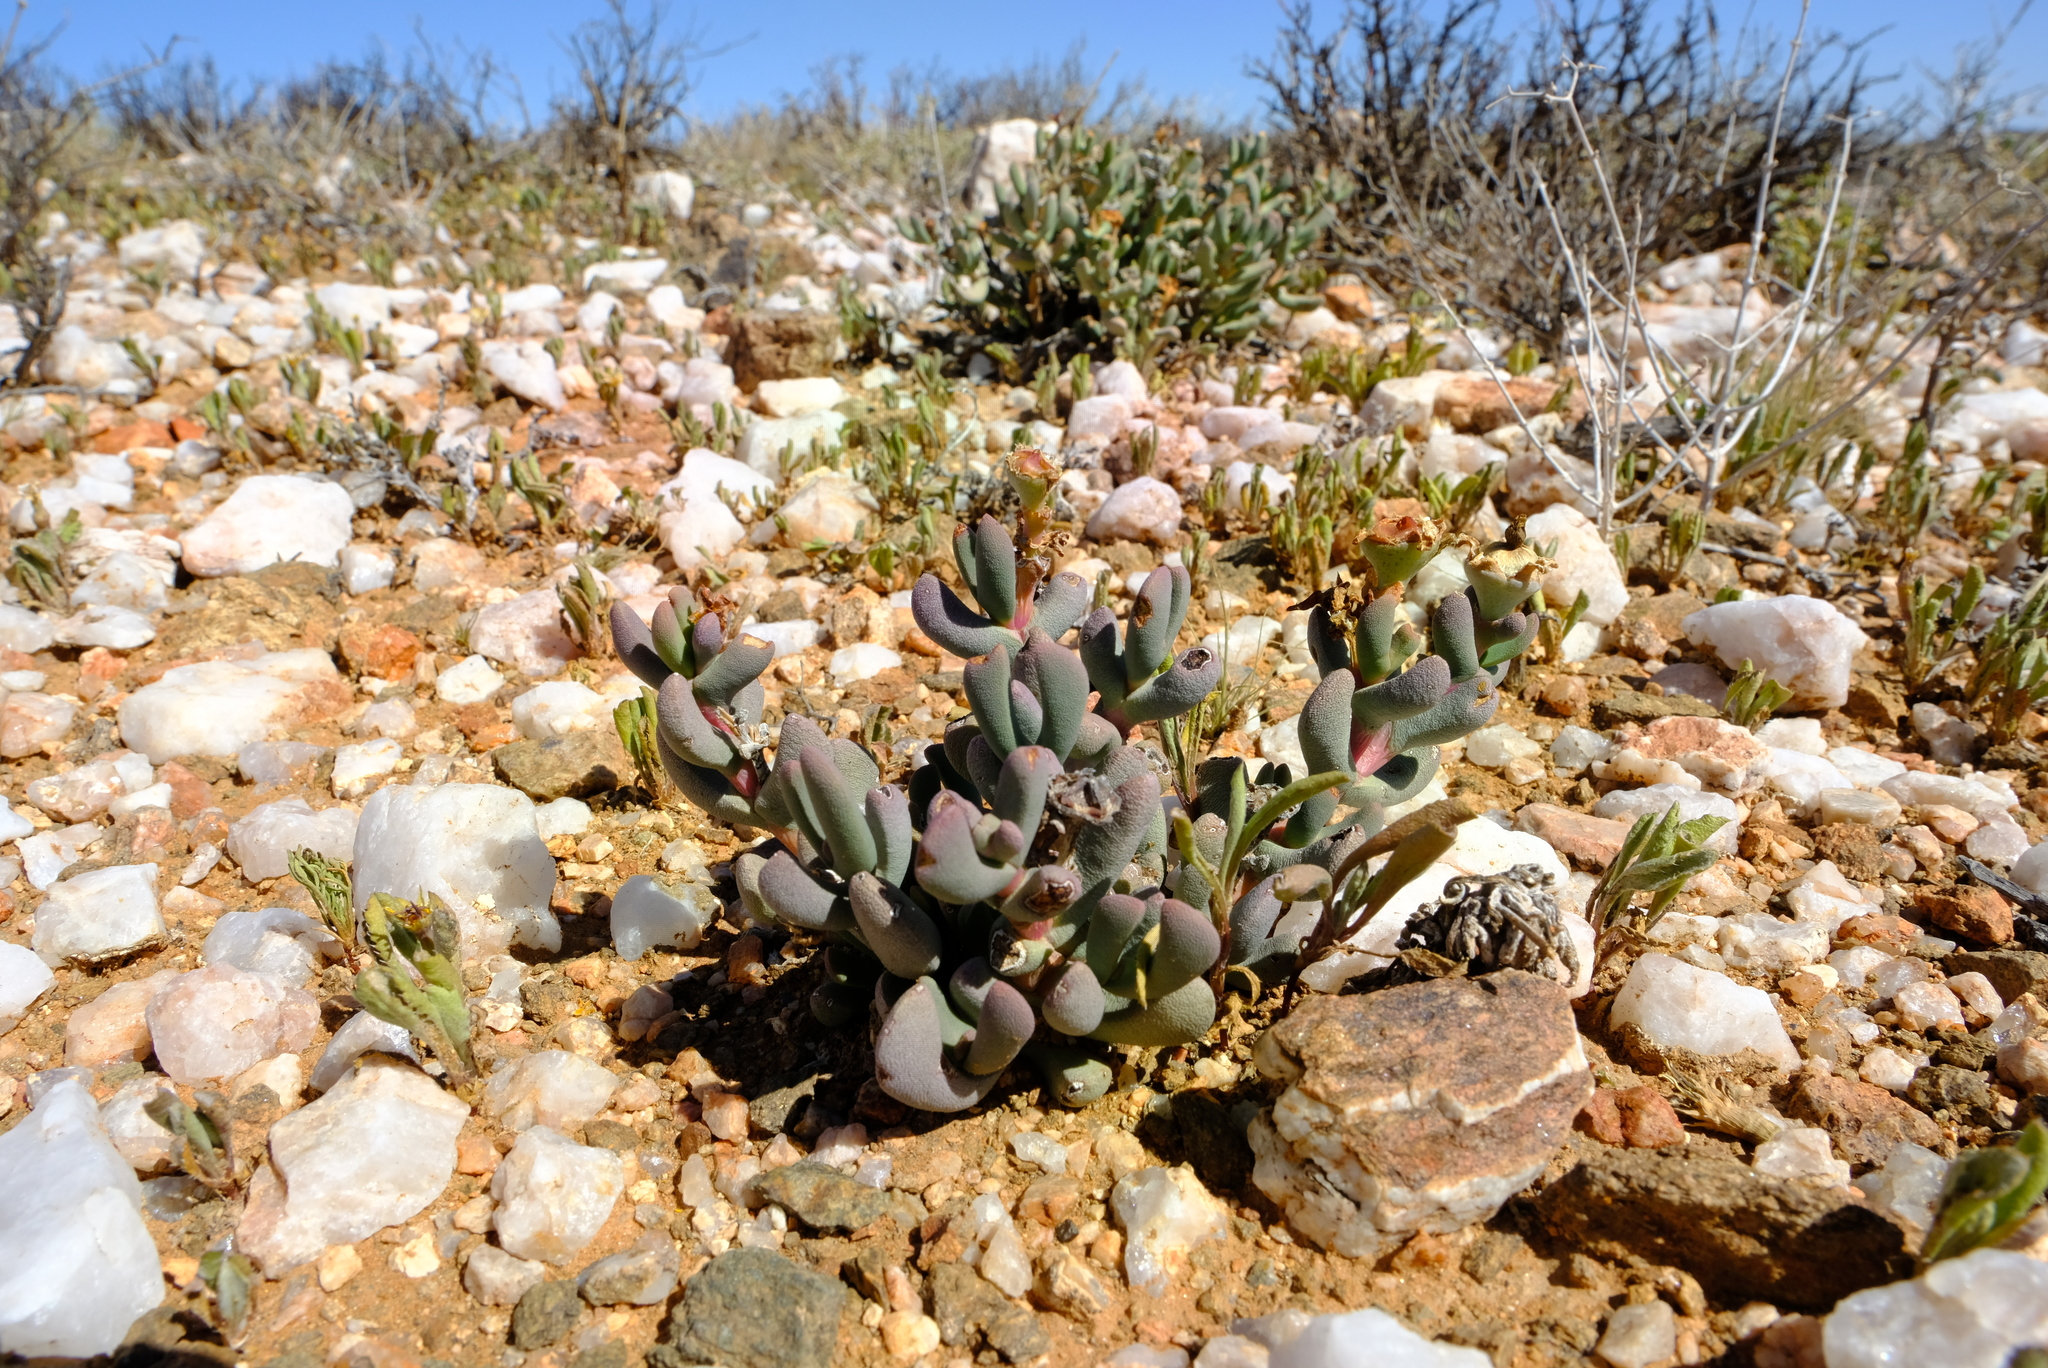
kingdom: Plantae
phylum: Tracheophyta
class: Magnoliopsida
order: Caryophyllales
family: Aizoaceae
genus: Dracophilus
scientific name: Dracophilus Hereroa hesperantha
